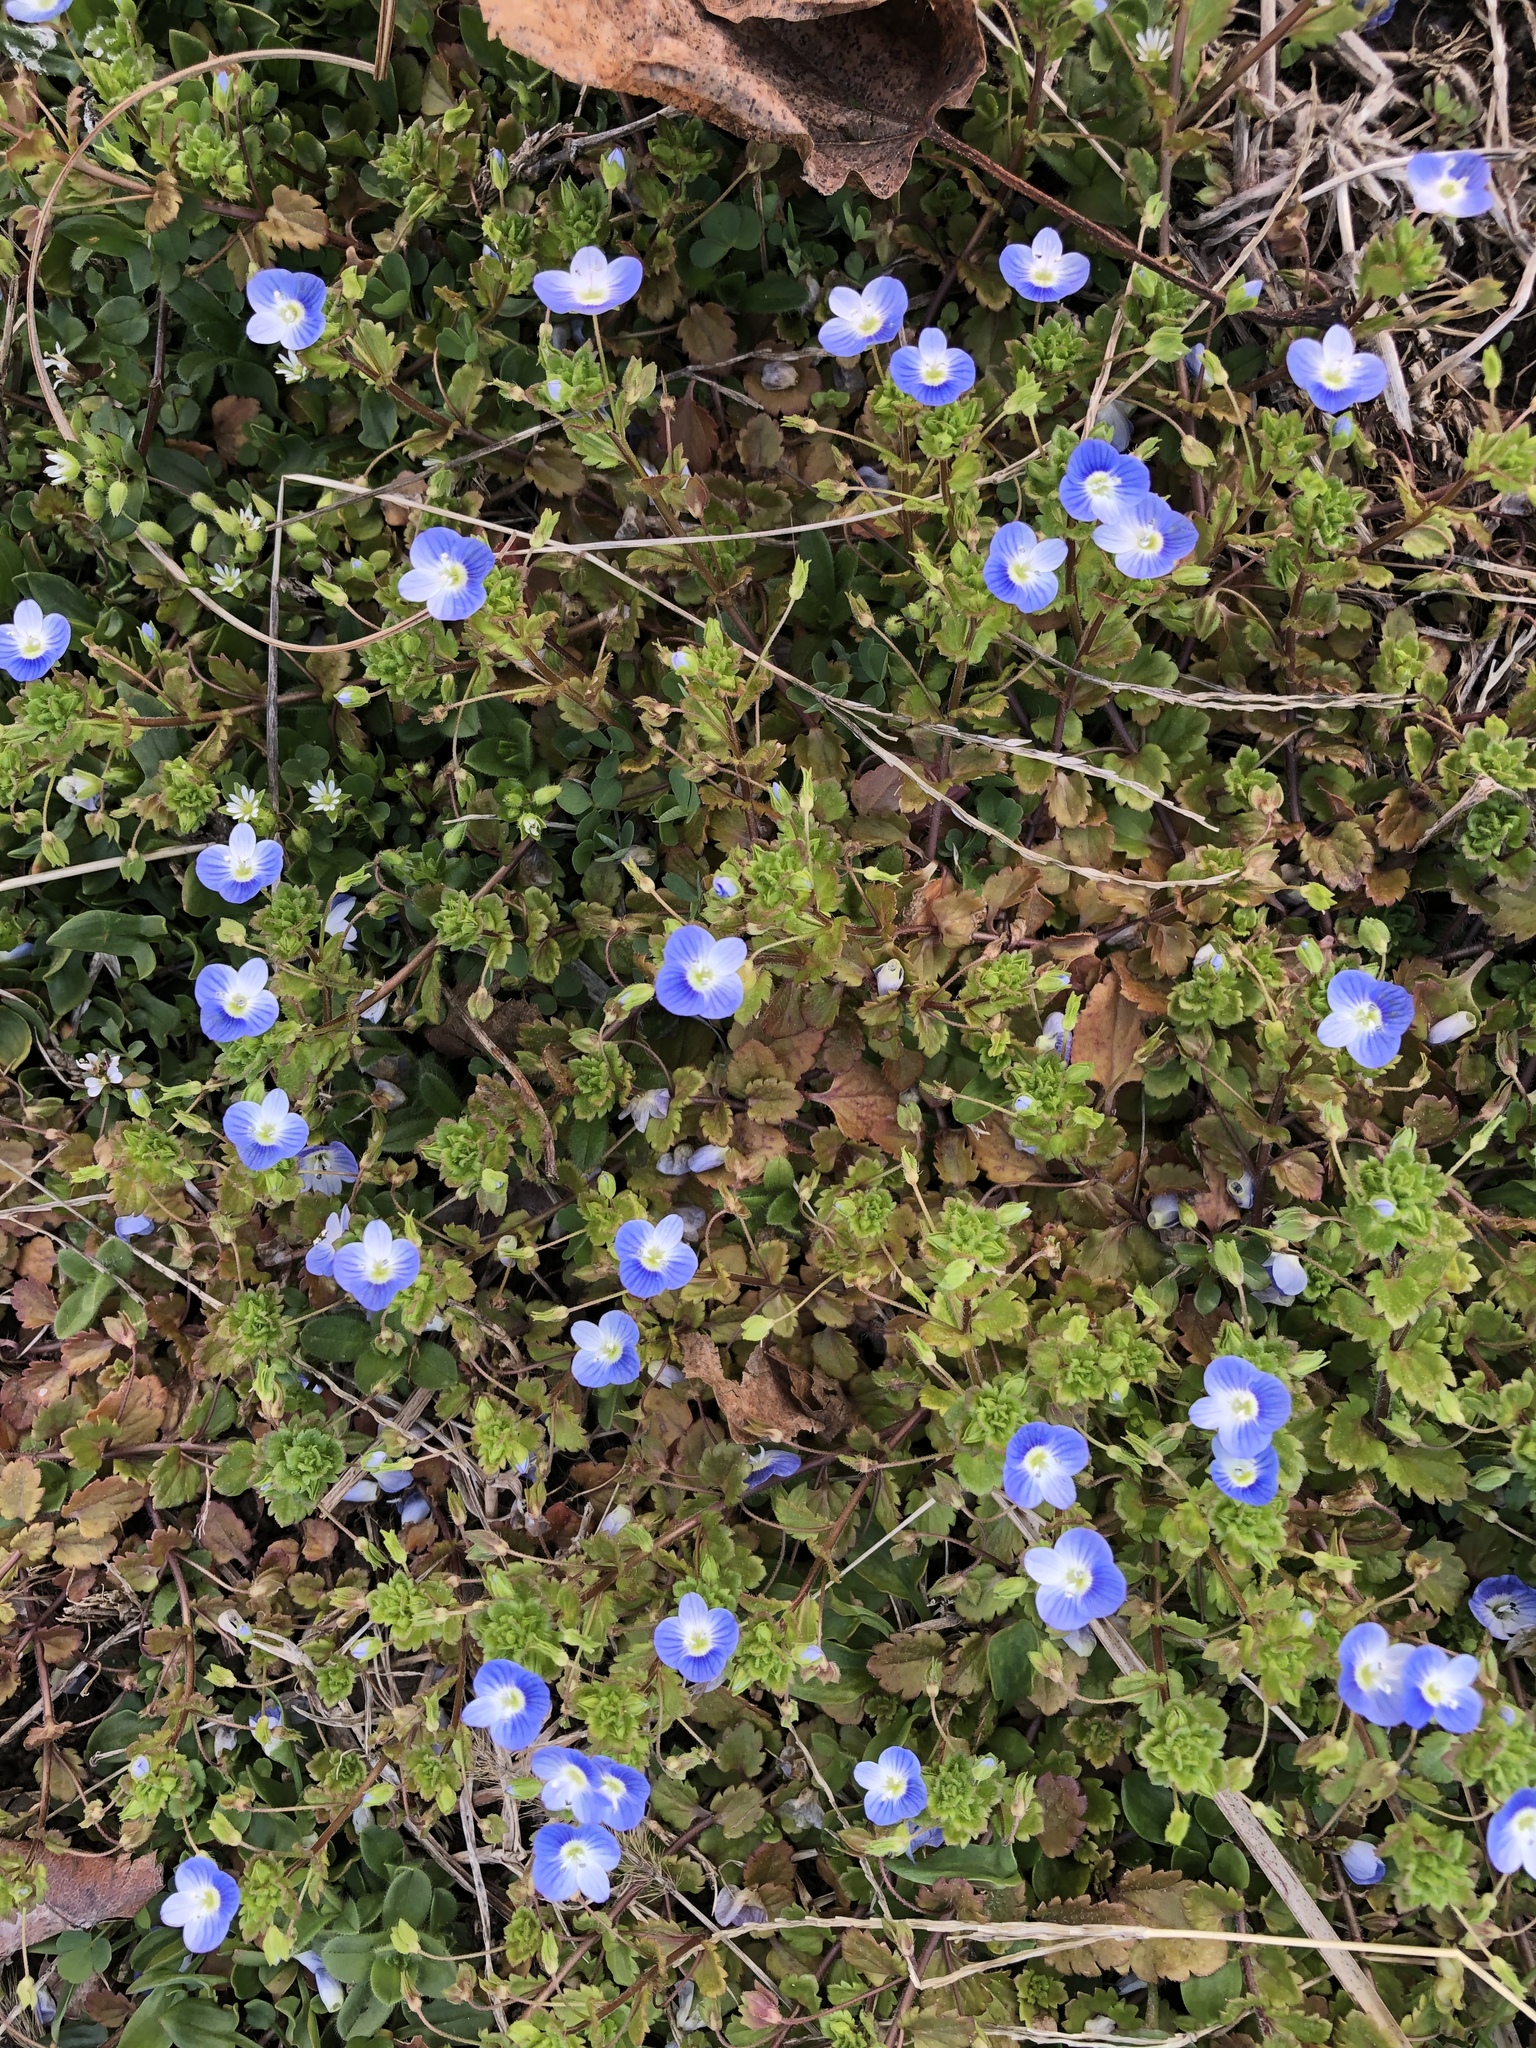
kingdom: Plantae
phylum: Tracheophyta
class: Magnoliopsida
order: Lamiales
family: Plantaginaceae
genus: Veronica
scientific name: Veronica persica
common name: Common field-speedwell
